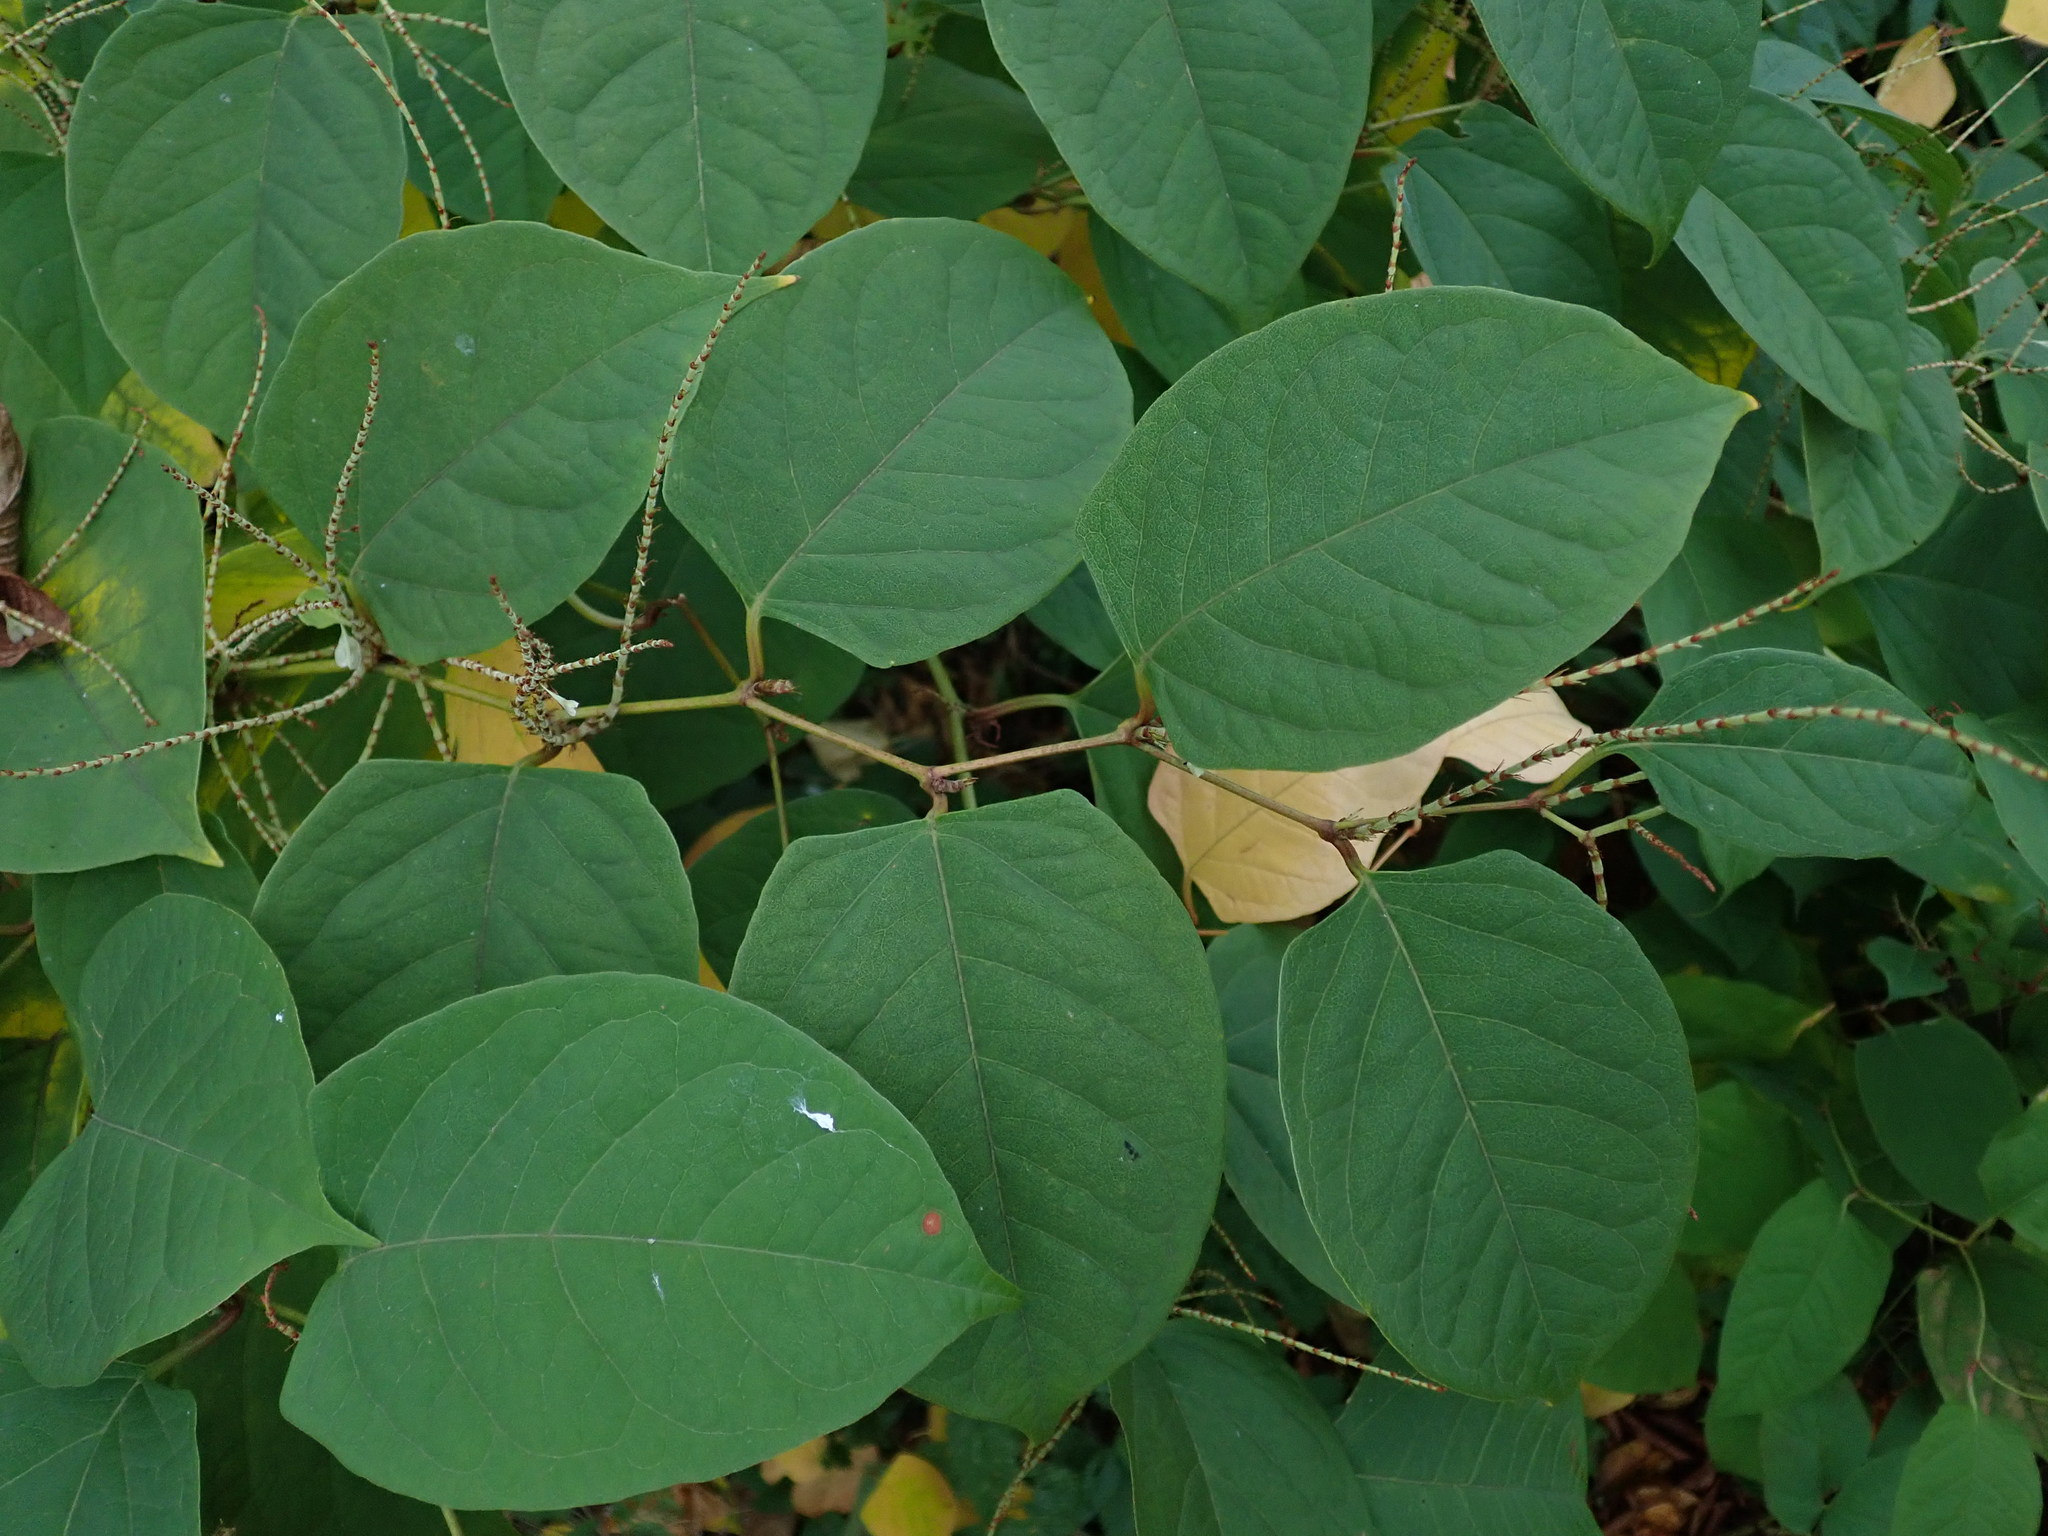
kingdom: Plantae
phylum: Tracheophyta
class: Magnoliopsida
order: Caryophyllales
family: Polygonaceae
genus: Reynoutria
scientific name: Reynoutria japonica
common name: Japanese knotweed
